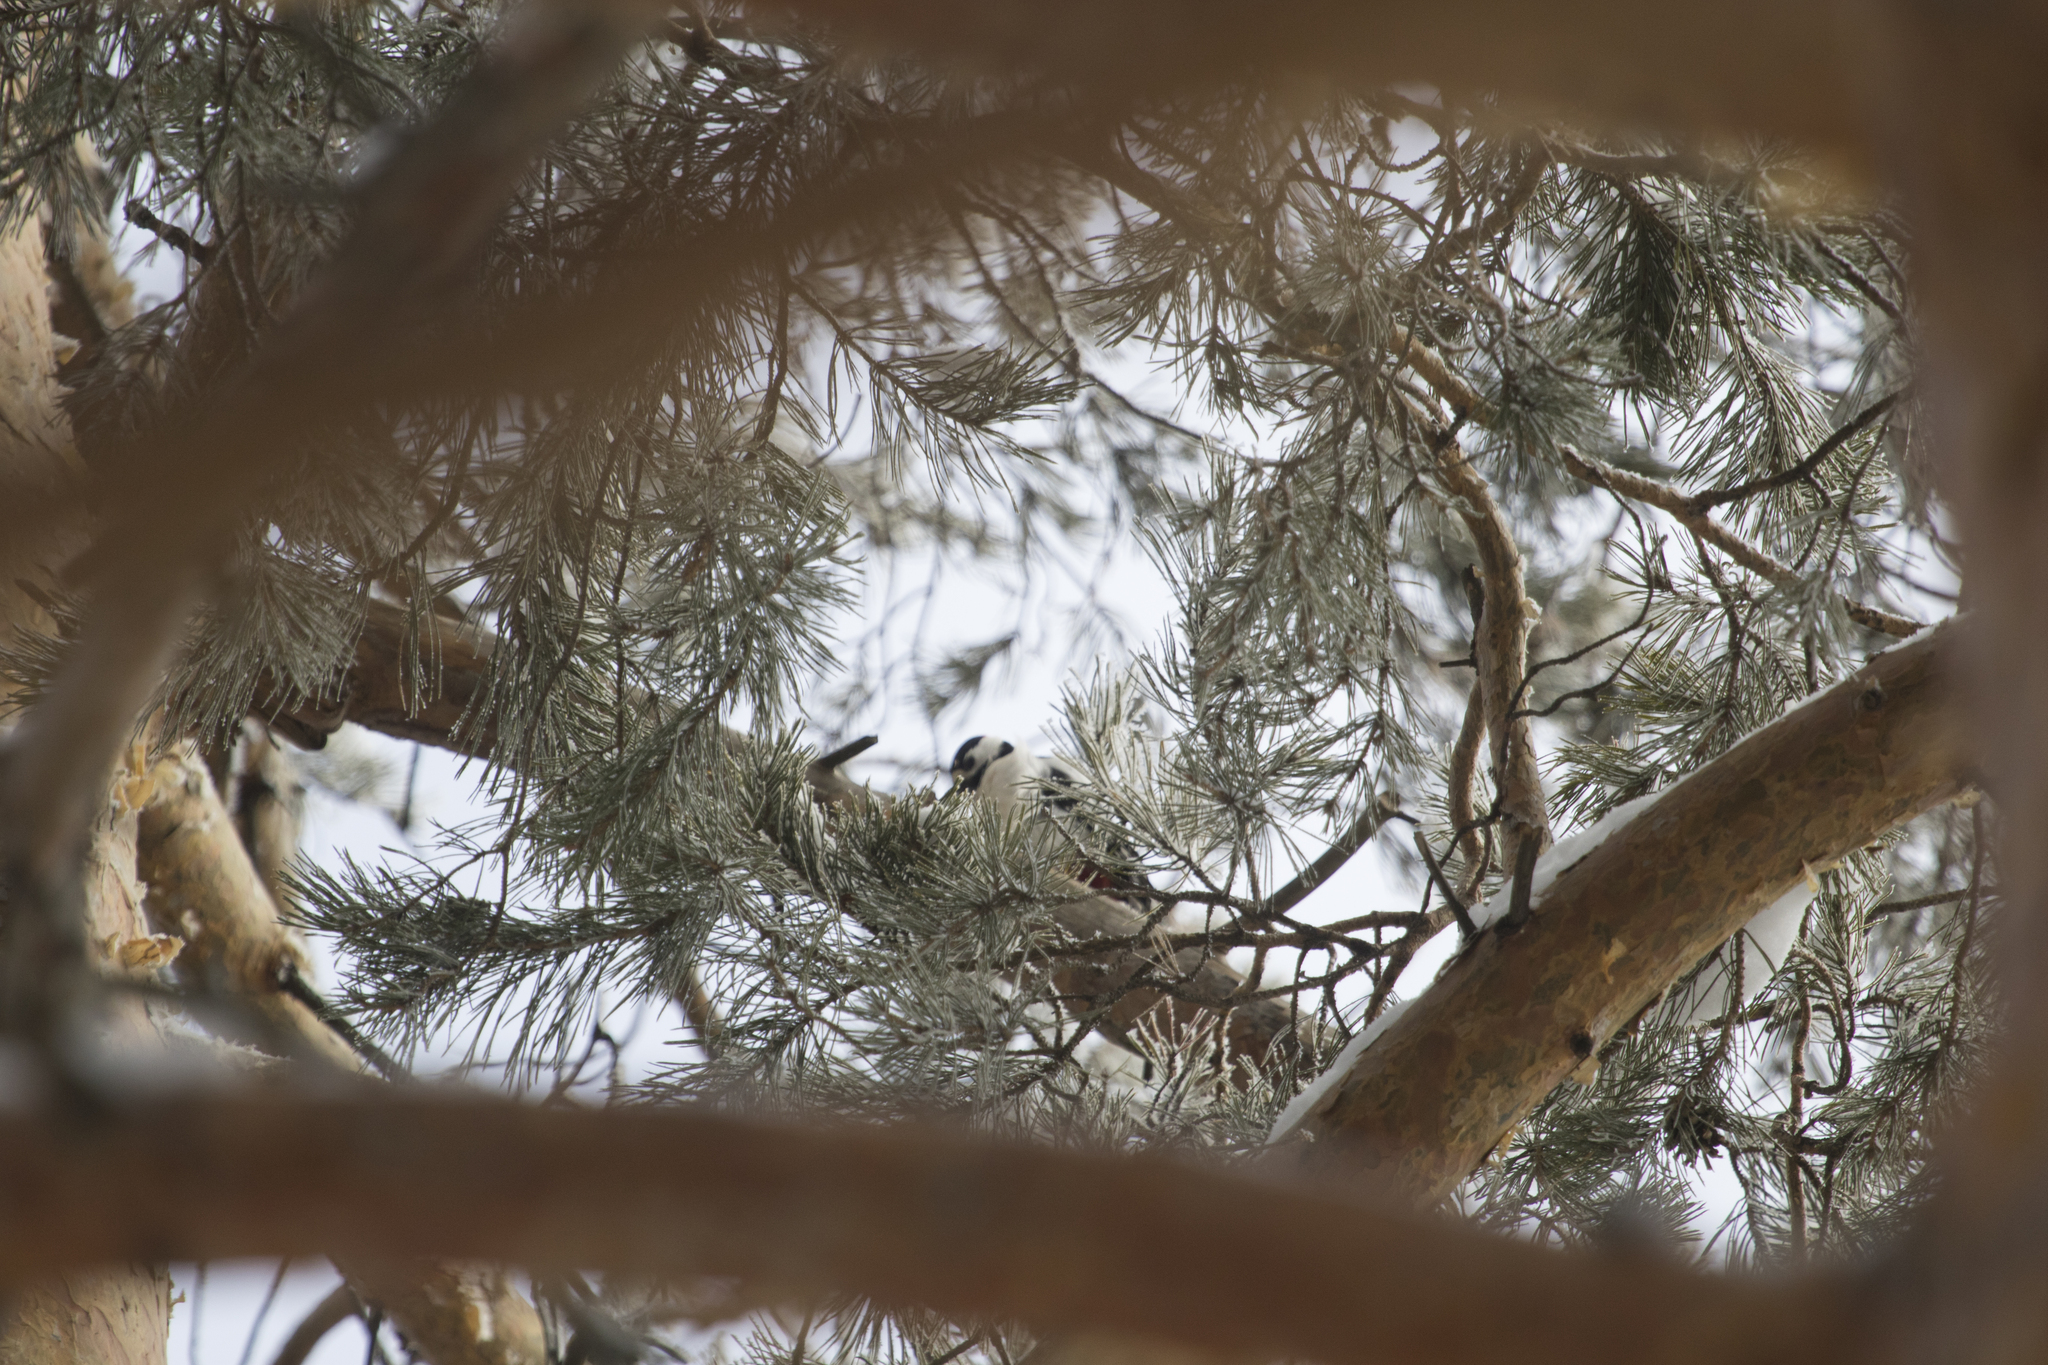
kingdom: Animalia
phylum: Chordata
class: Aves
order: Piciformes
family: Picidae
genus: Dendrocopos
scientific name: Dendrocopos major
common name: Great spotted woodpecker
